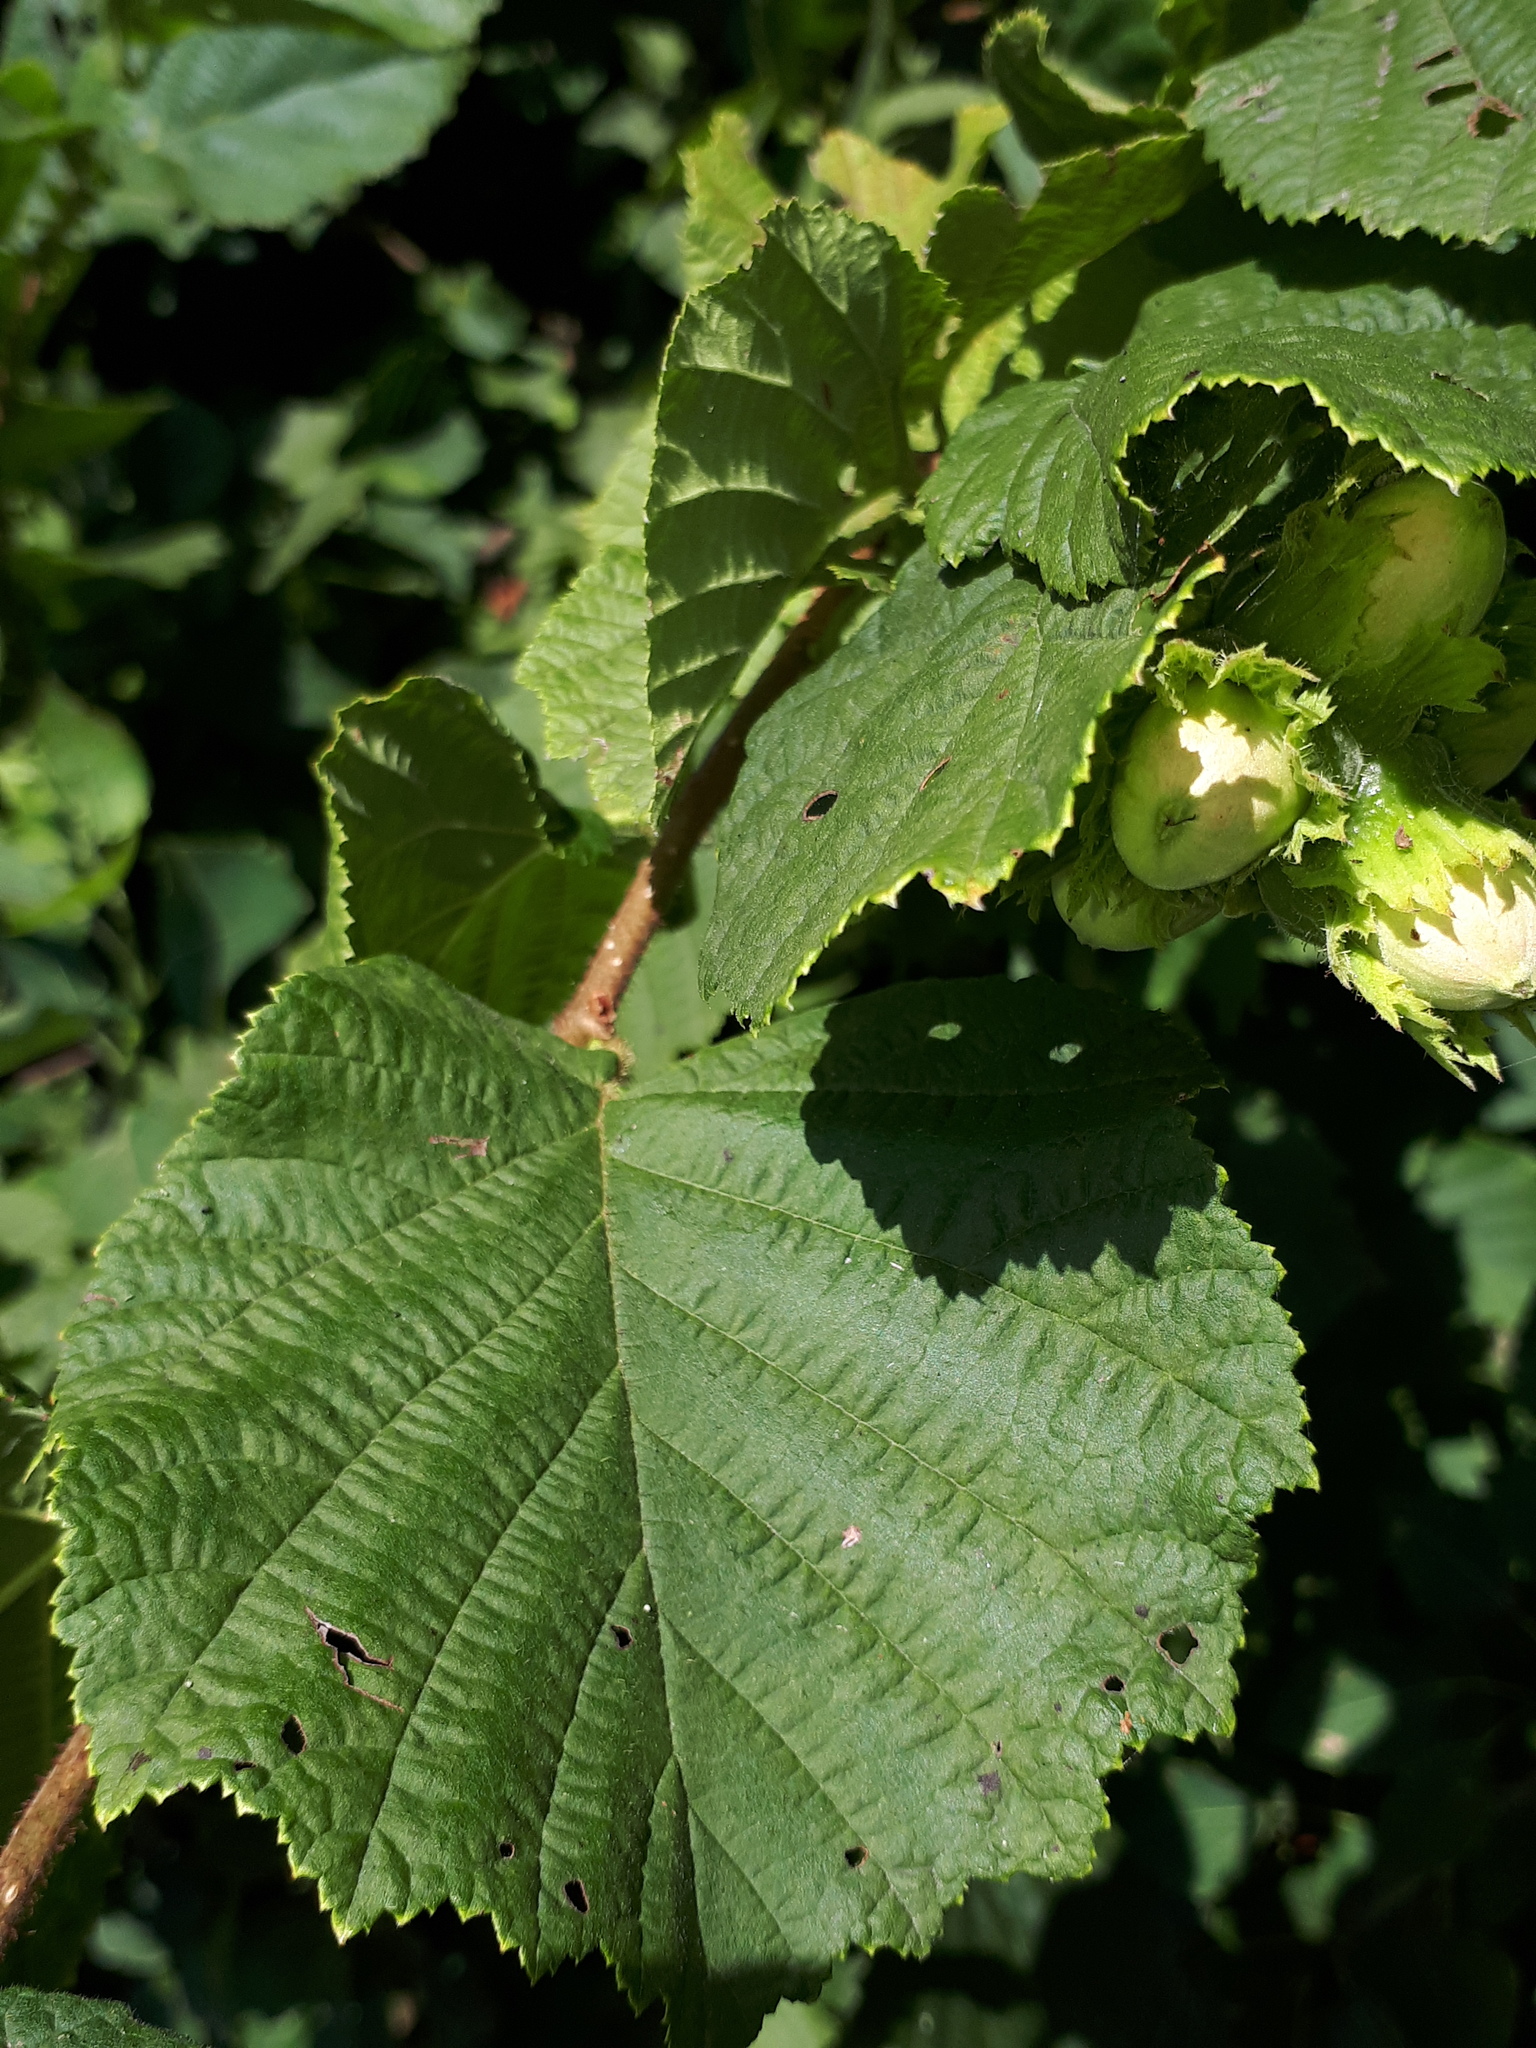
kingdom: Plantae
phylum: Tracheophyta
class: Magnoliopsida
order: Fagales
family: Betulaceae
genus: Corylus
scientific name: Corylus avellana
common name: European hazel
